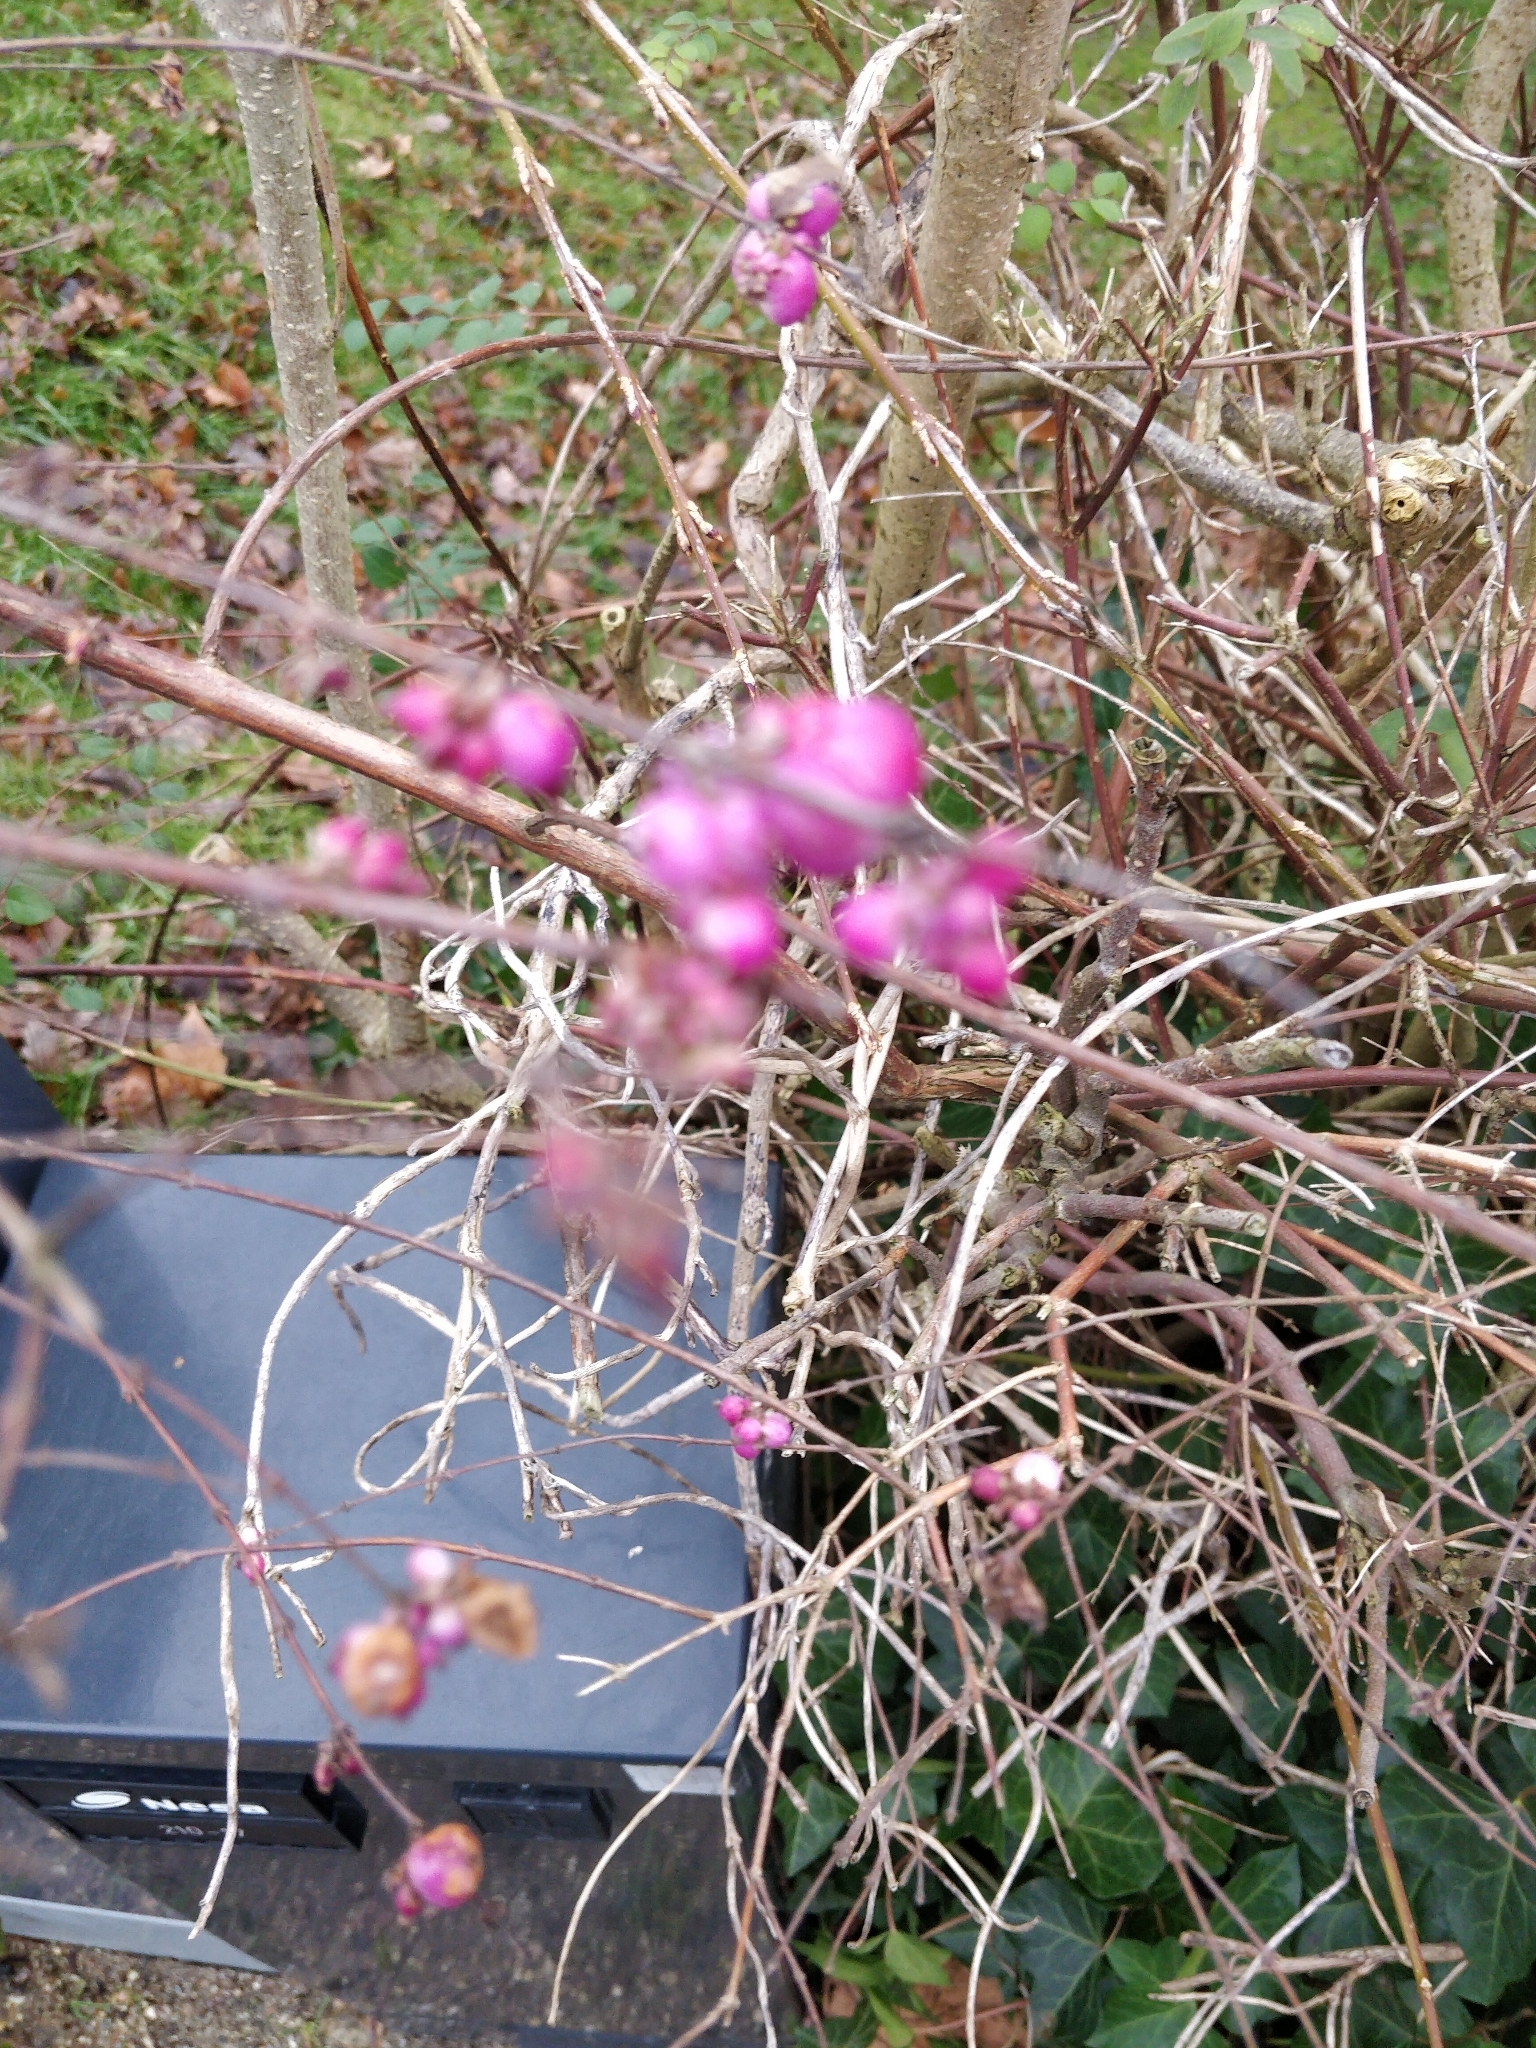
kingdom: Plantae
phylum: Tracheophyta
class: Magnoliopsida
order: Dipsacales
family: Caprifoliaceae
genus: Symphoricarpos
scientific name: Symphoricarpos orbiculatus
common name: Coralberry
